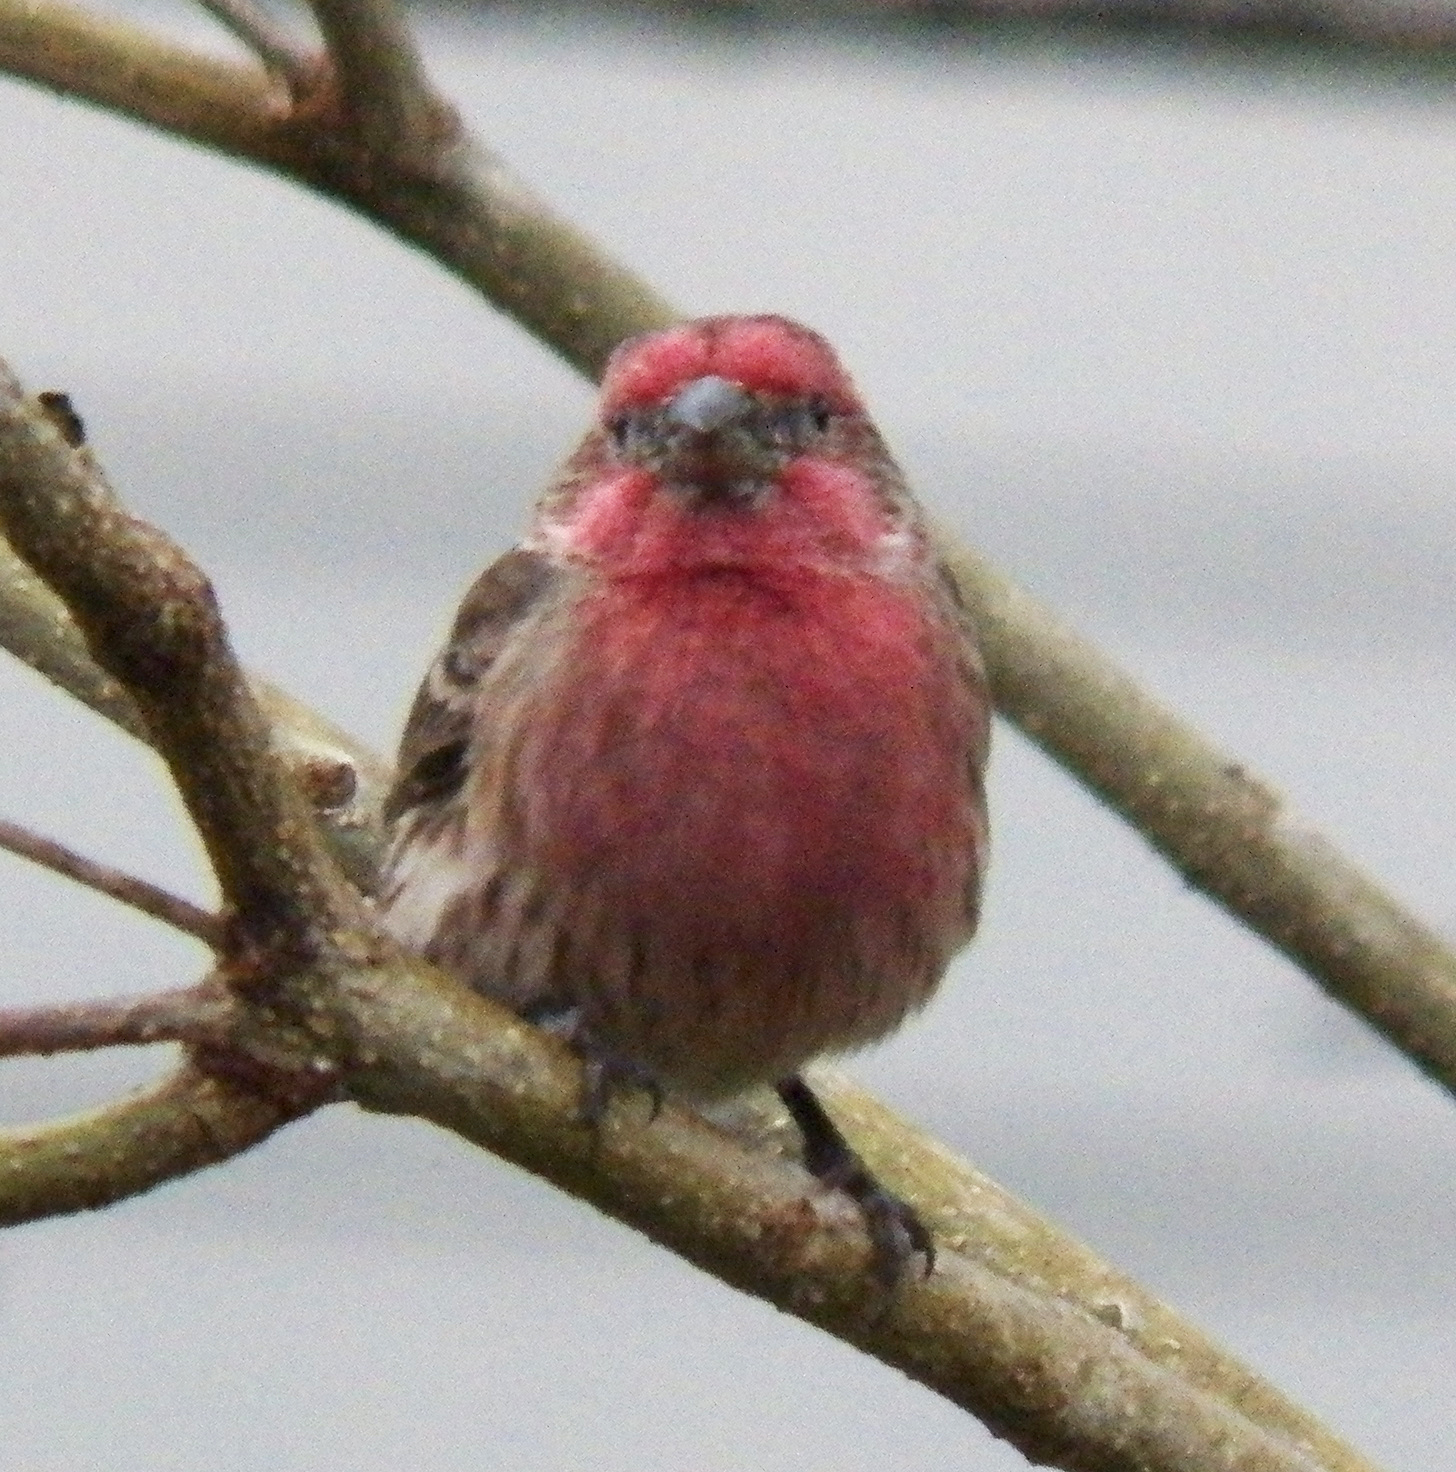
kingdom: Animalia
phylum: Chordata
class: Aves
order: Passeriformes
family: Fringillidae
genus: Haemorhous
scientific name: Haemorhous mexicanus
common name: House finch
